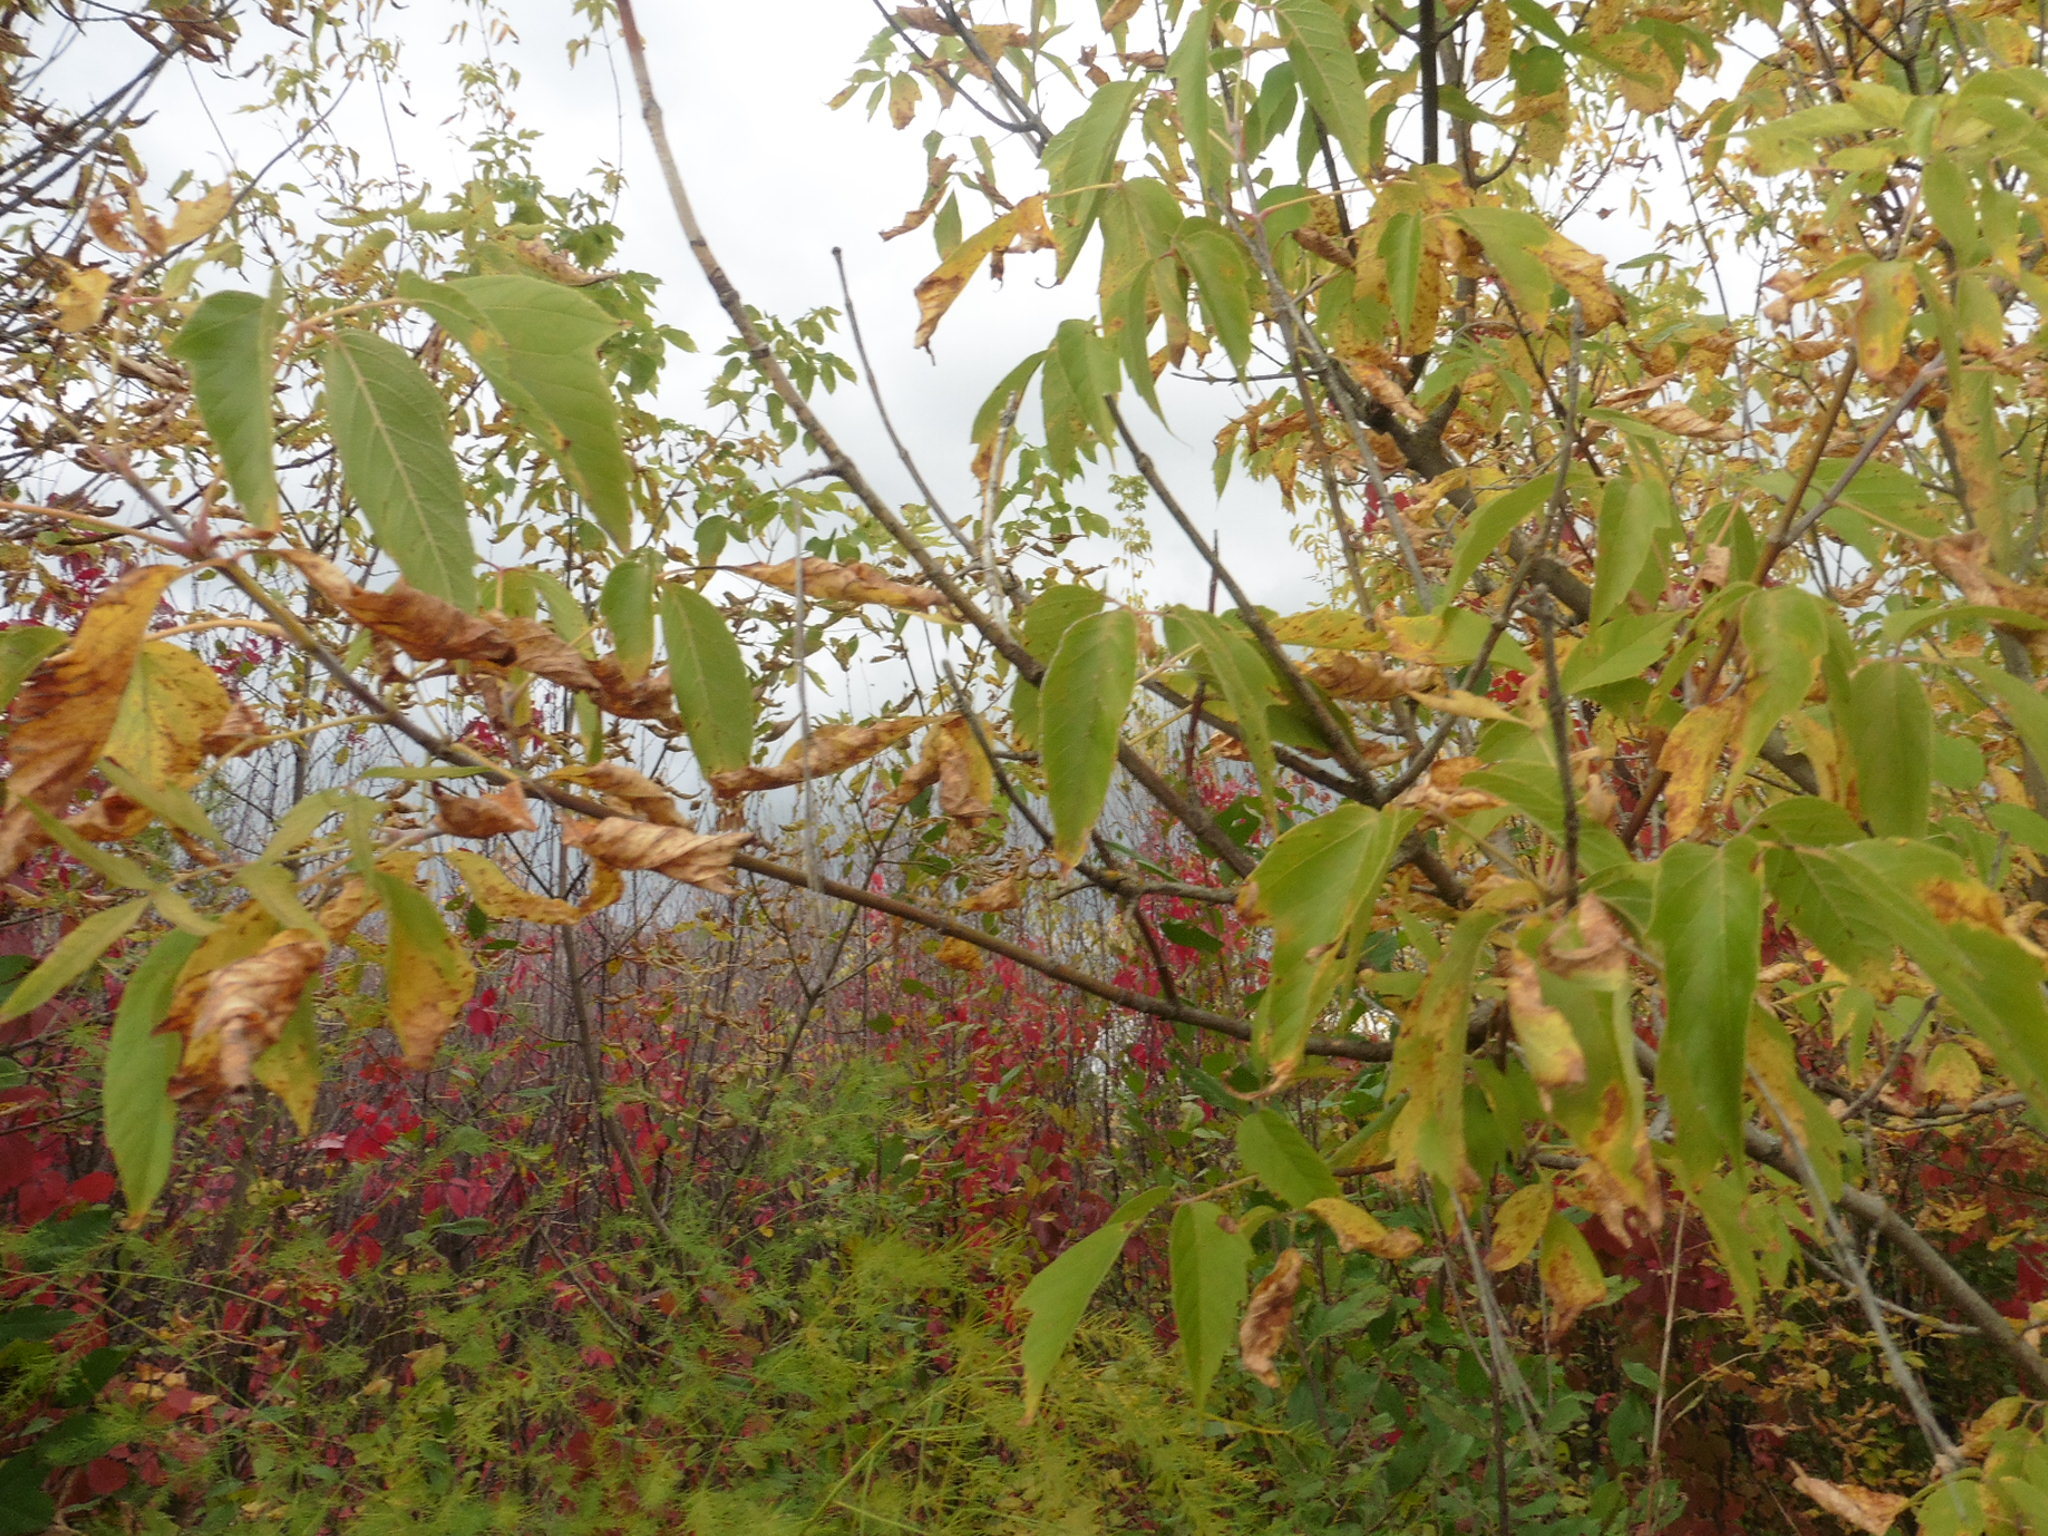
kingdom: Plantae
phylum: Tracheophyta
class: Magnoliopsida
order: Sapindales
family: Sapindaceae
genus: Acer
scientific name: Acer negundo
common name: Ashleaf maple
